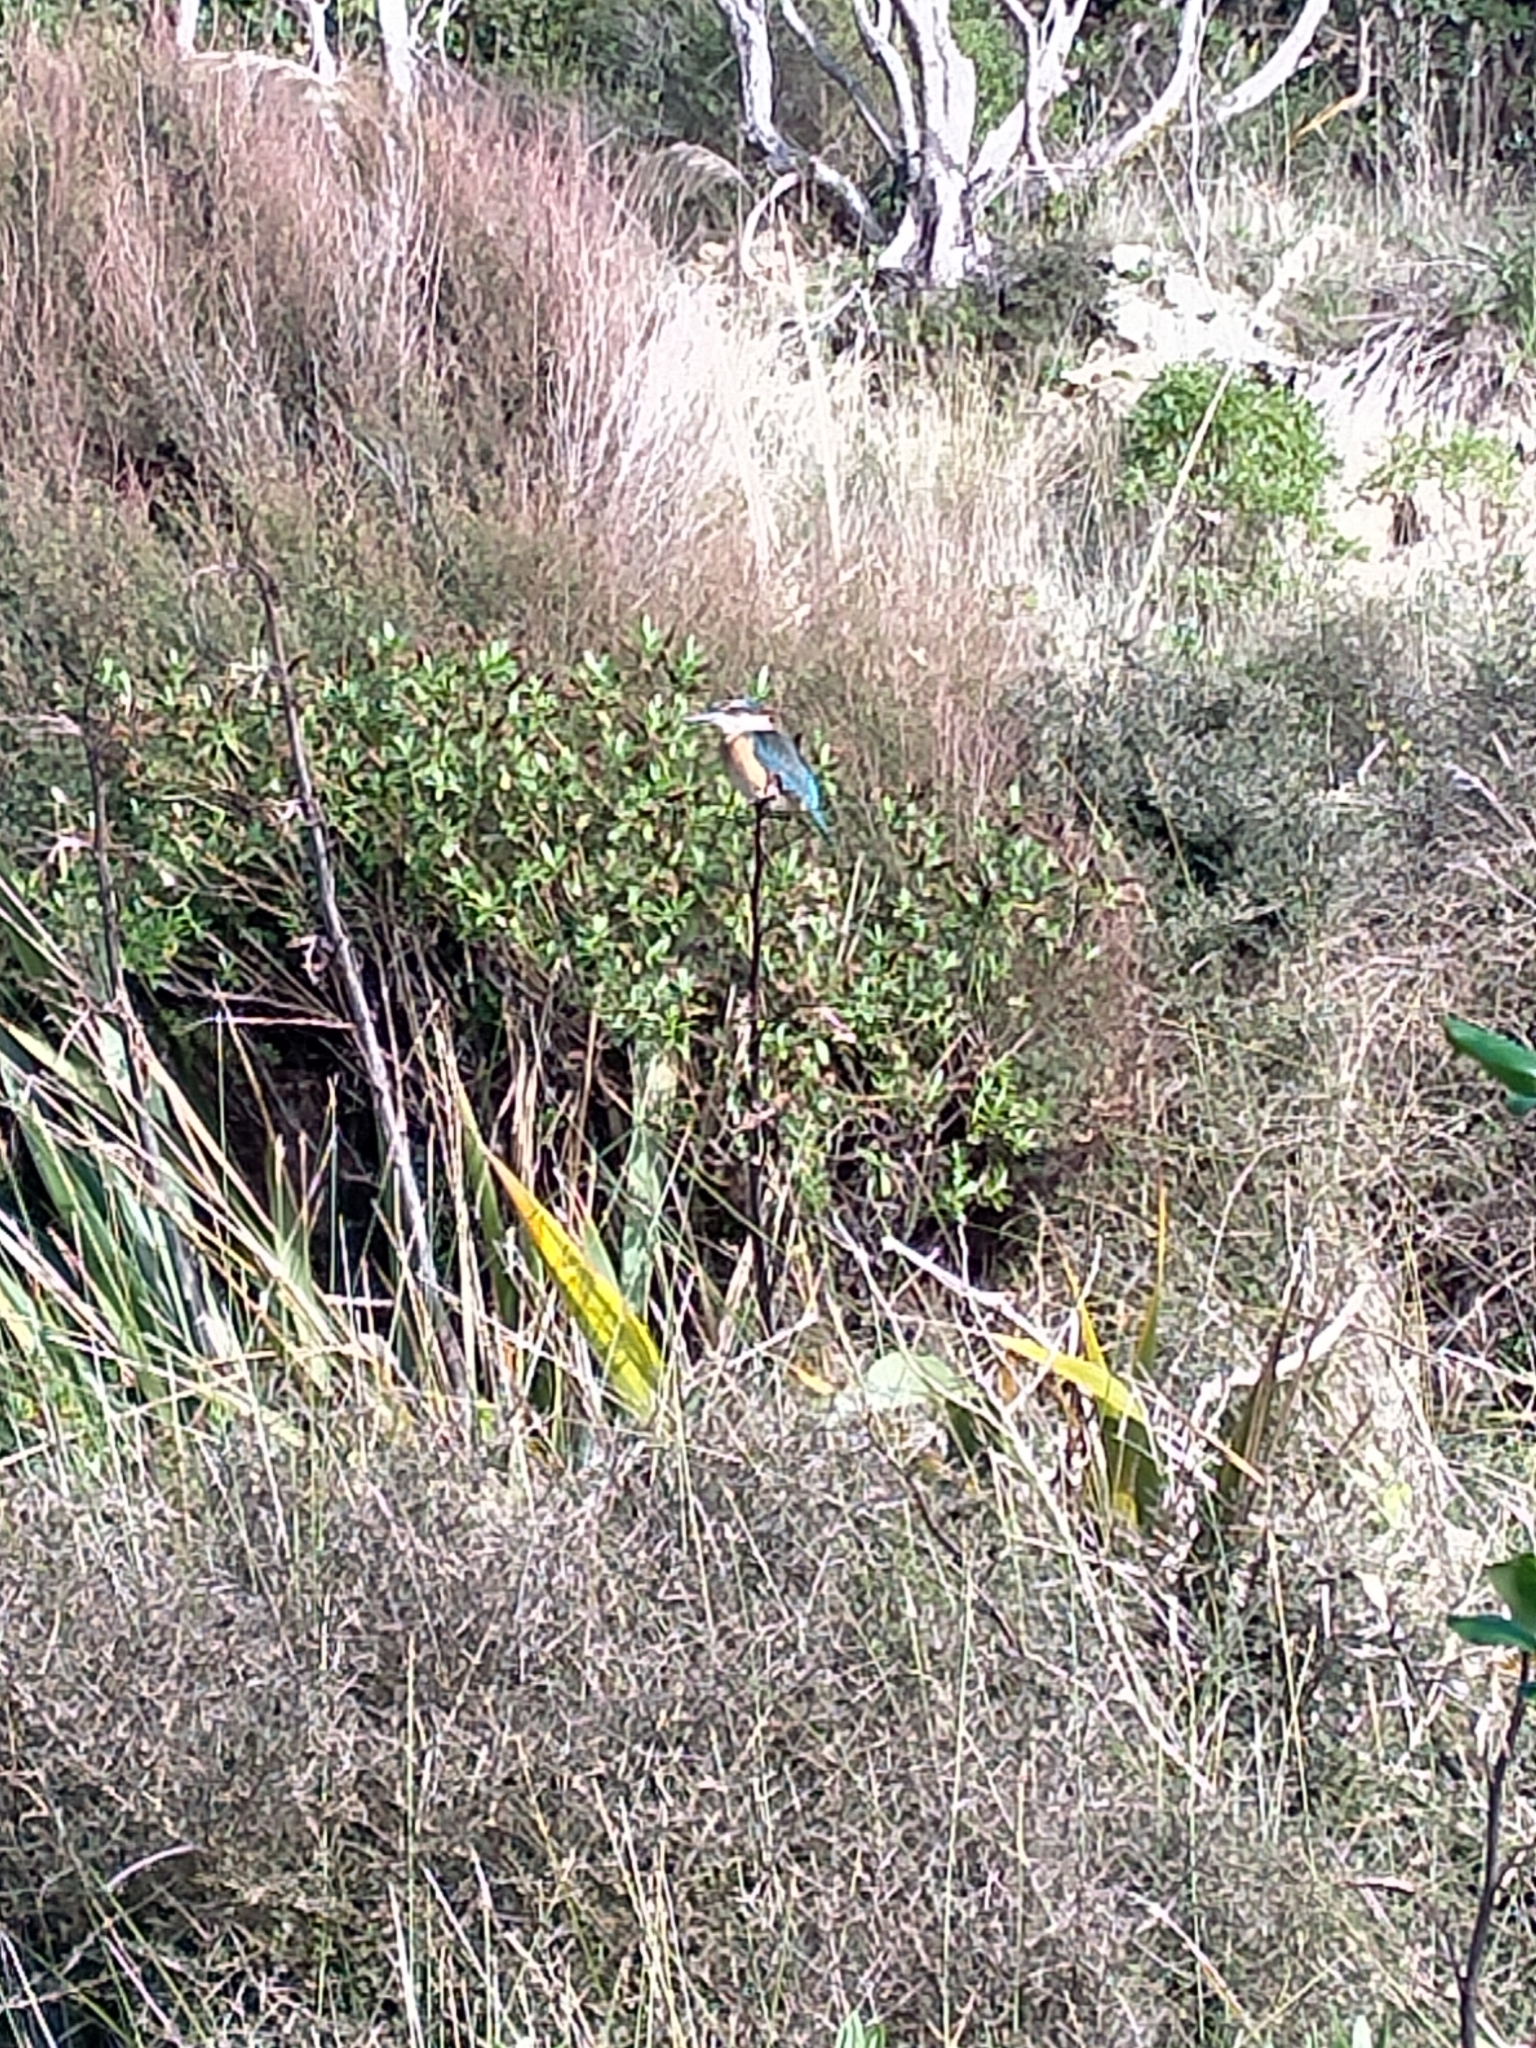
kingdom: Animalia
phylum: Chordata
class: Aves
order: Coraciiformes
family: Alcedinidae
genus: Todiramphus
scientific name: Todiramphus sanctus
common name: Sacred kingfisher
